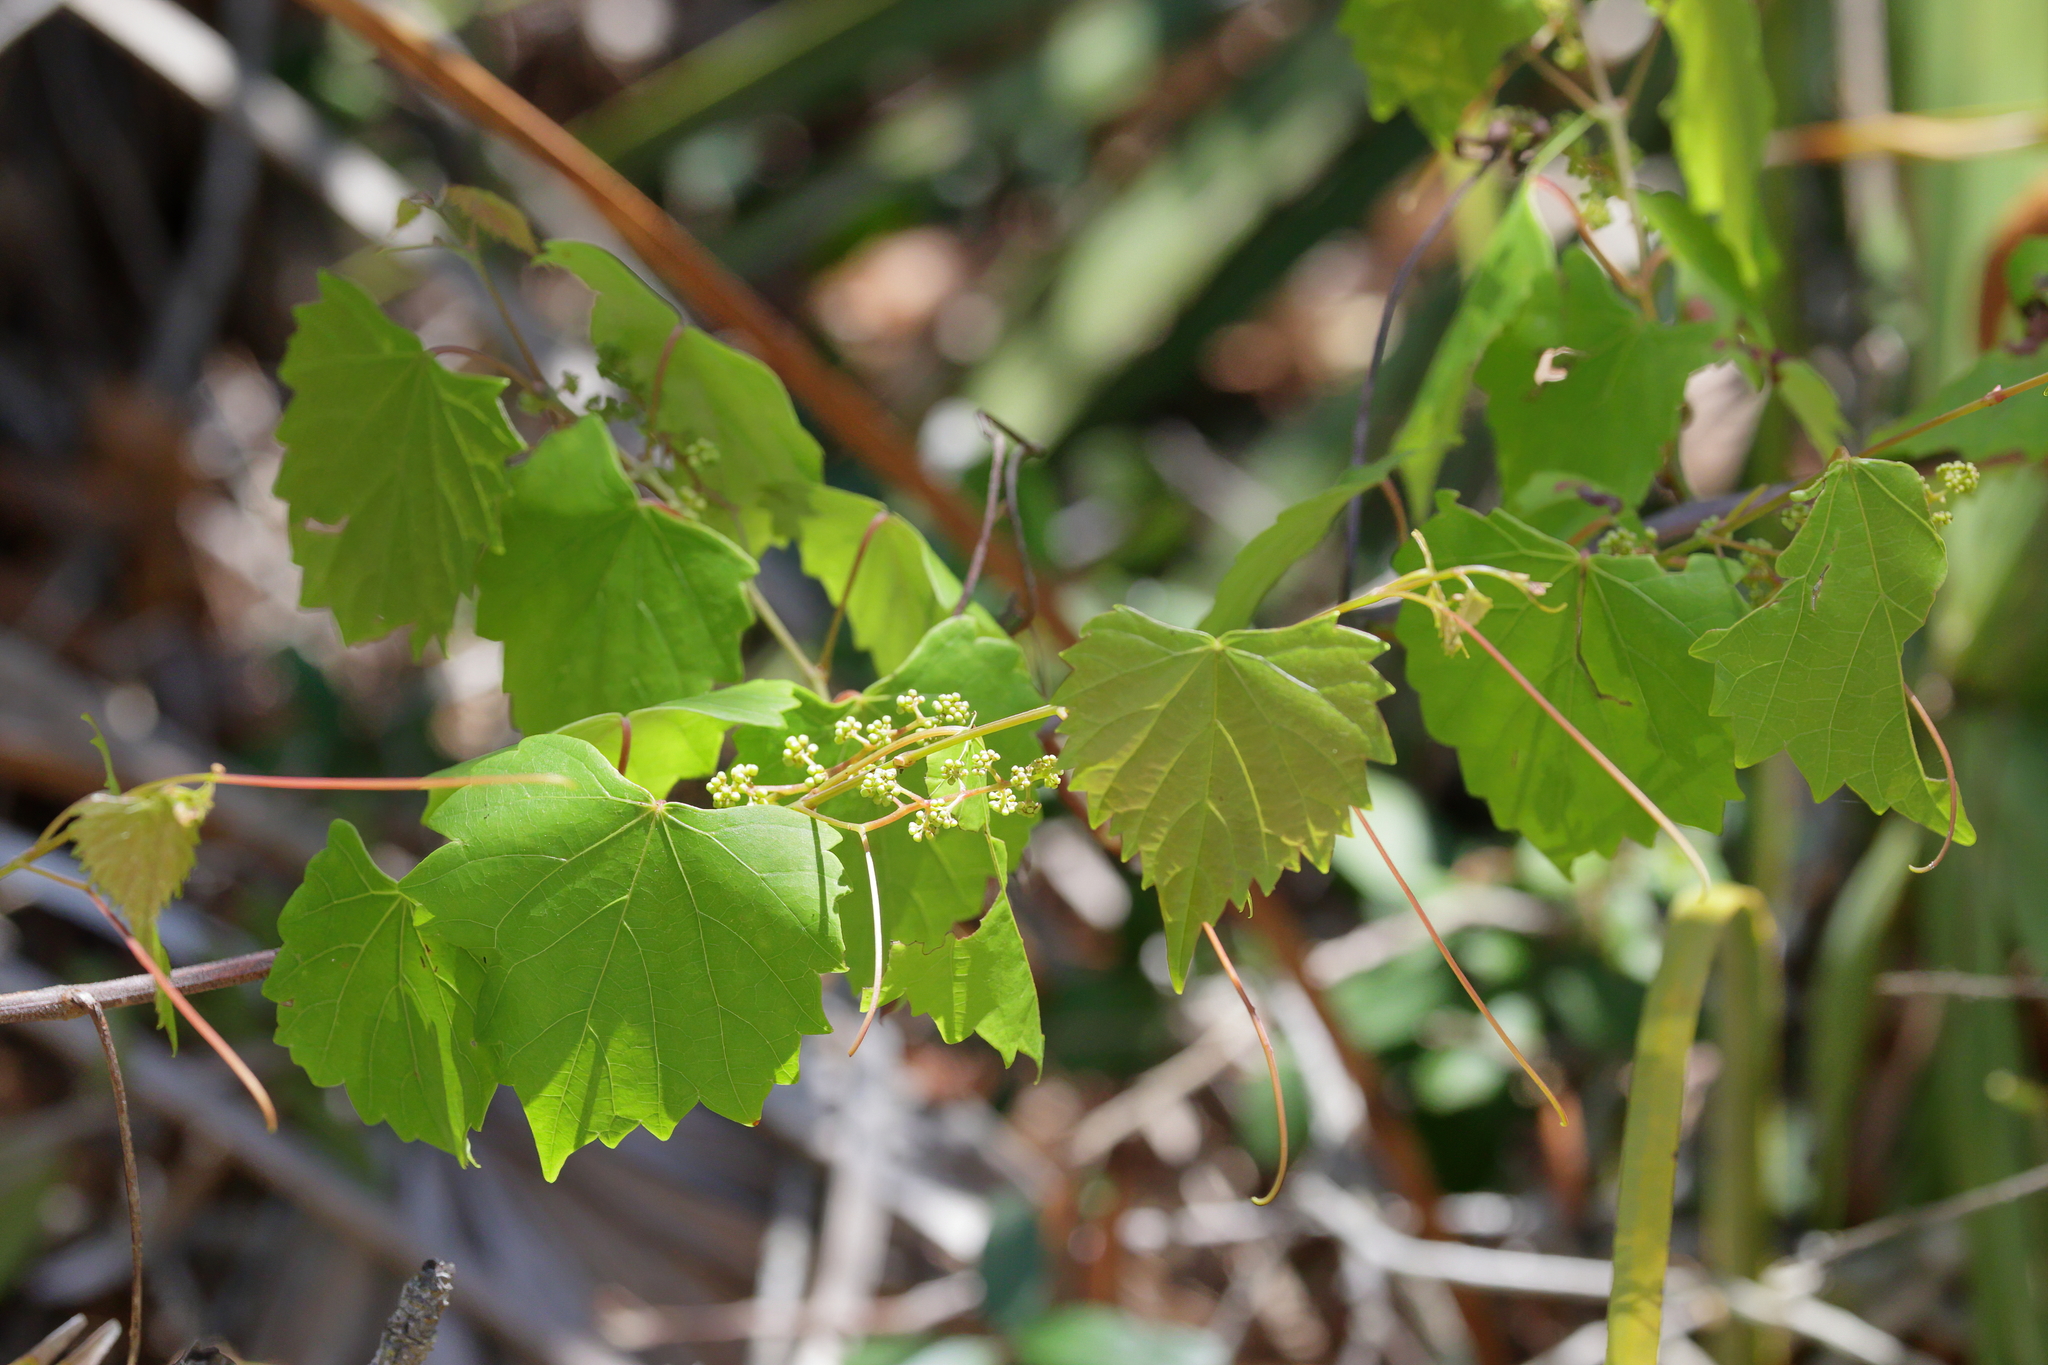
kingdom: Plantae
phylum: Tracheophyta
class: Magnoliopsida
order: Vitales
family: Vitaceae
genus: Vitis
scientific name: Vitis rotundifolia
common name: Muscadine grape
